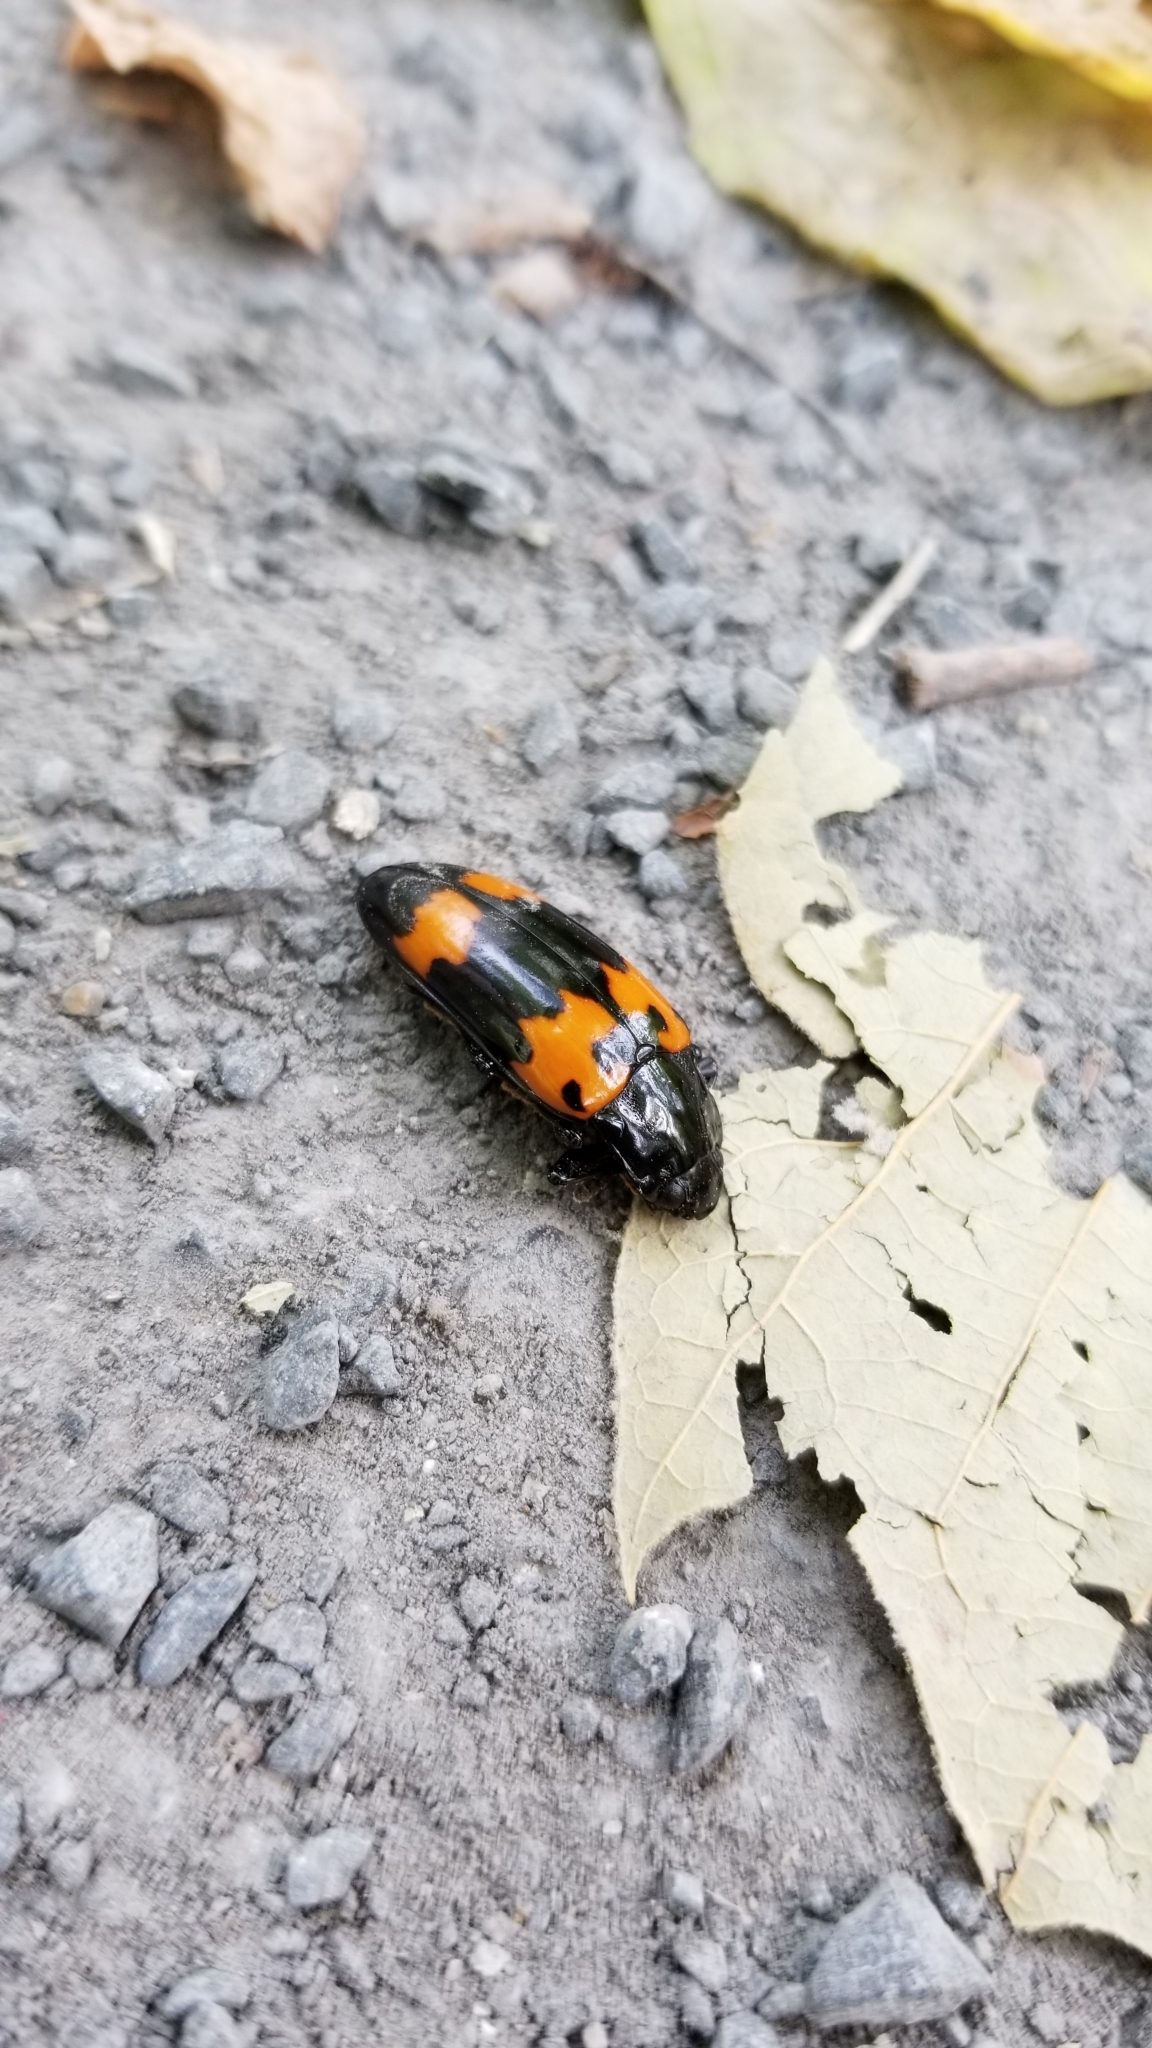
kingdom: Animalia
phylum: Arthropoda
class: Insecta
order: Coleoptera
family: Erotylidae
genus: Megalodacne
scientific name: Megalodacne heros
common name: Pleasing fungus beetle
